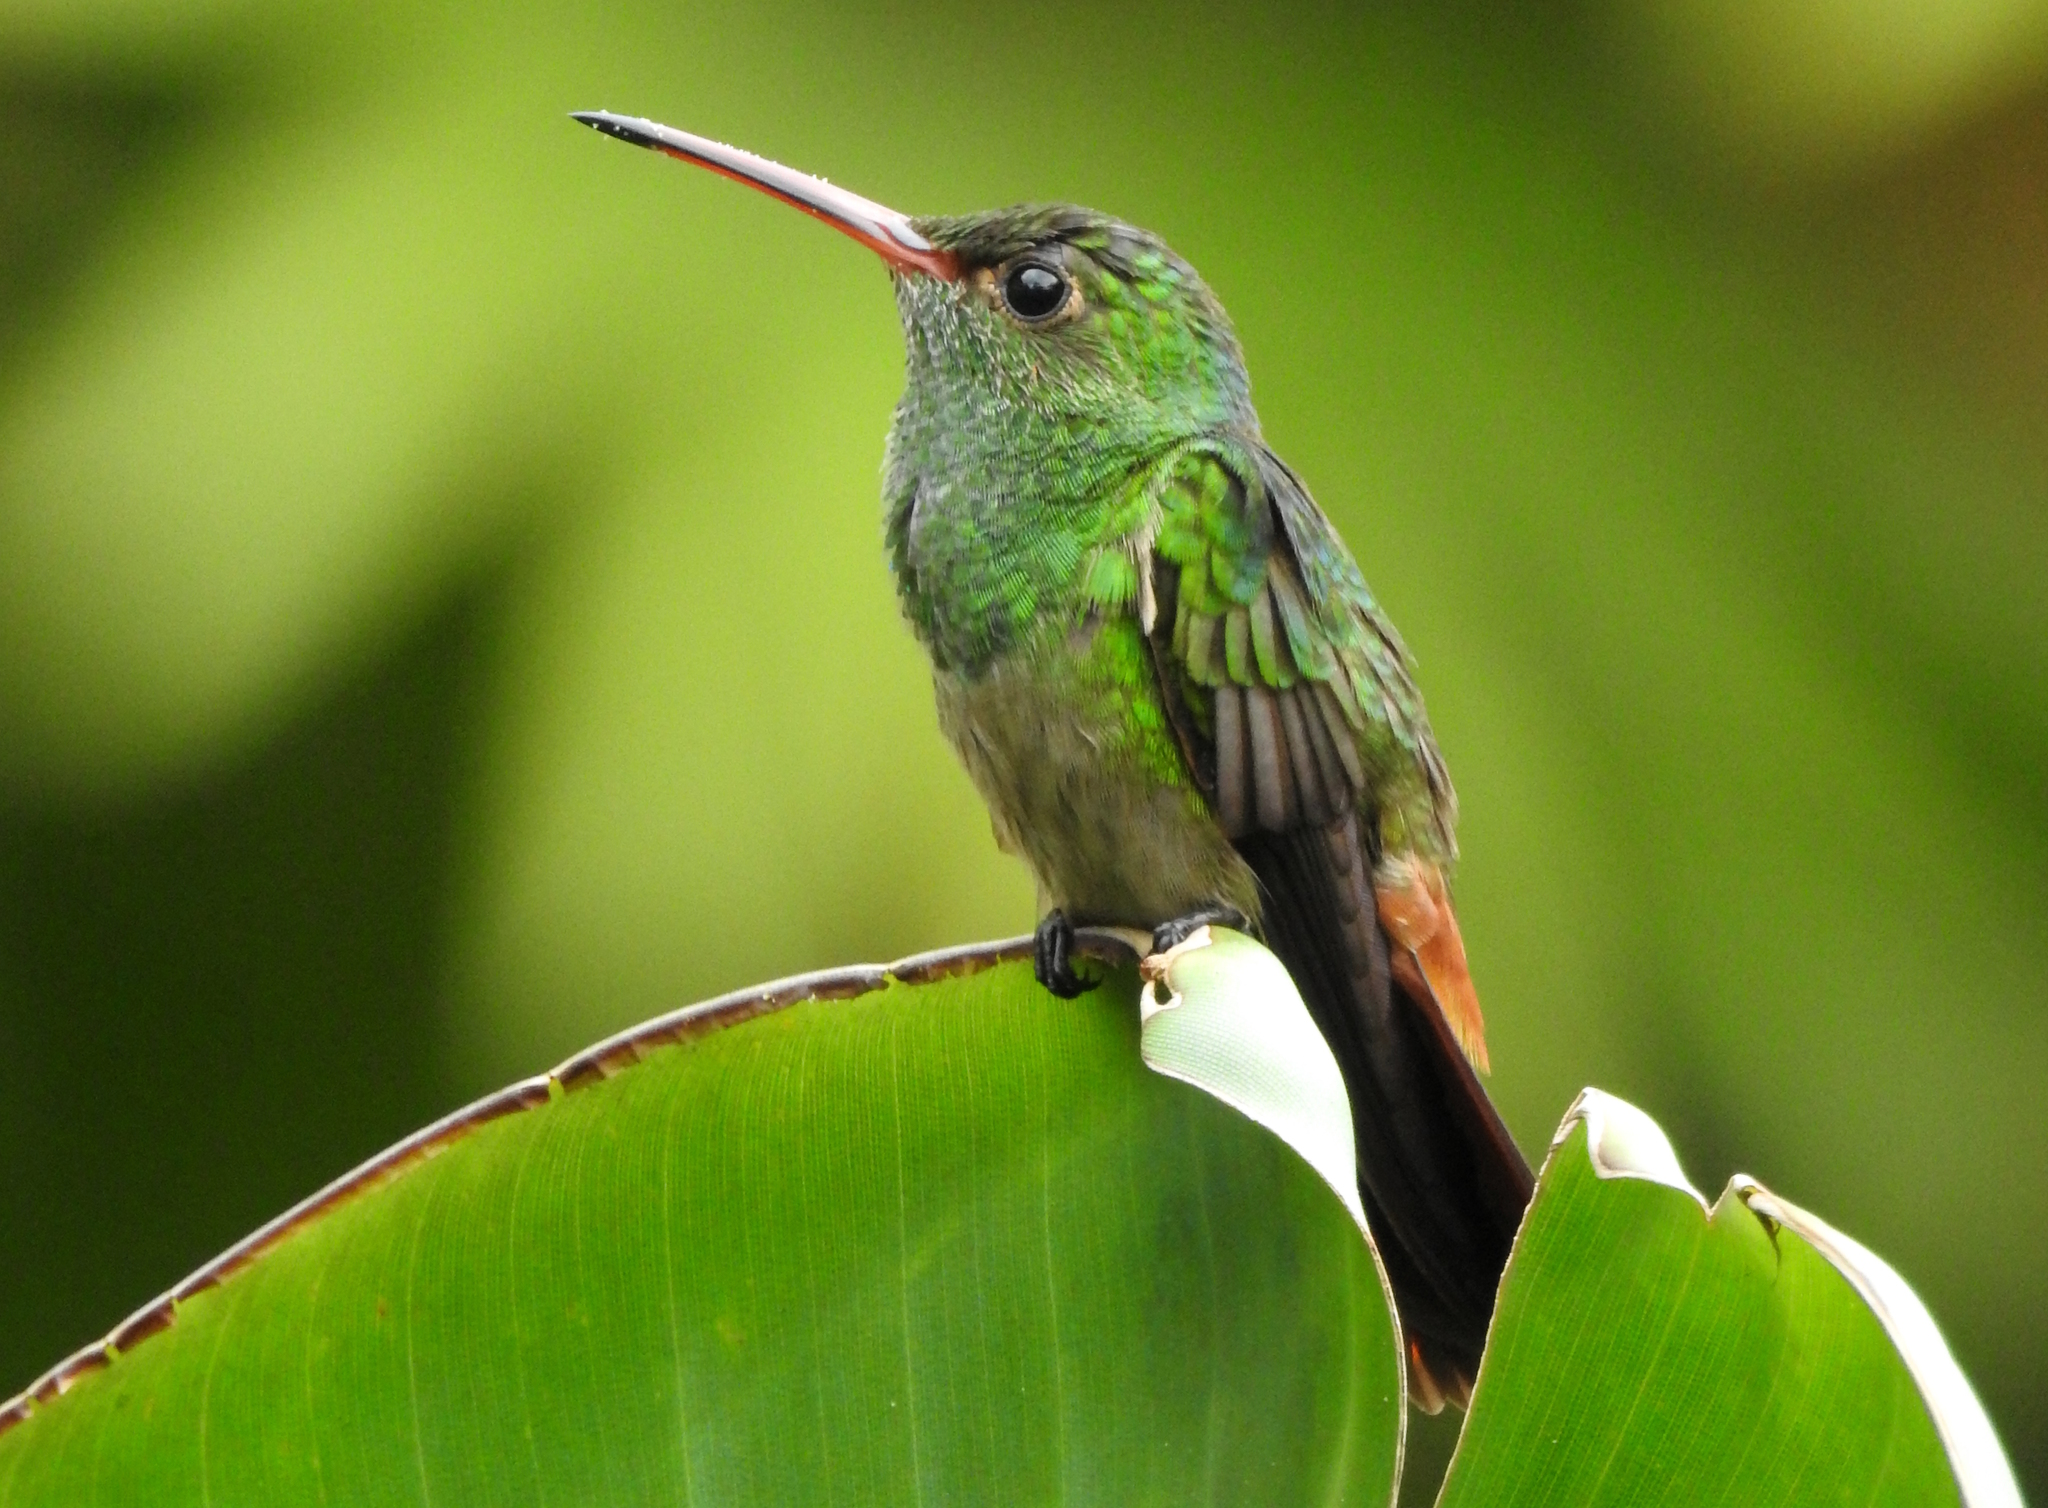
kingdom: Animalia
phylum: Chordata
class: Aves
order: Apodiformes
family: Trochilidae
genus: Amazilia
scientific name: Amazilia tzacatl
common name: Rufous-tailed hummingbird
